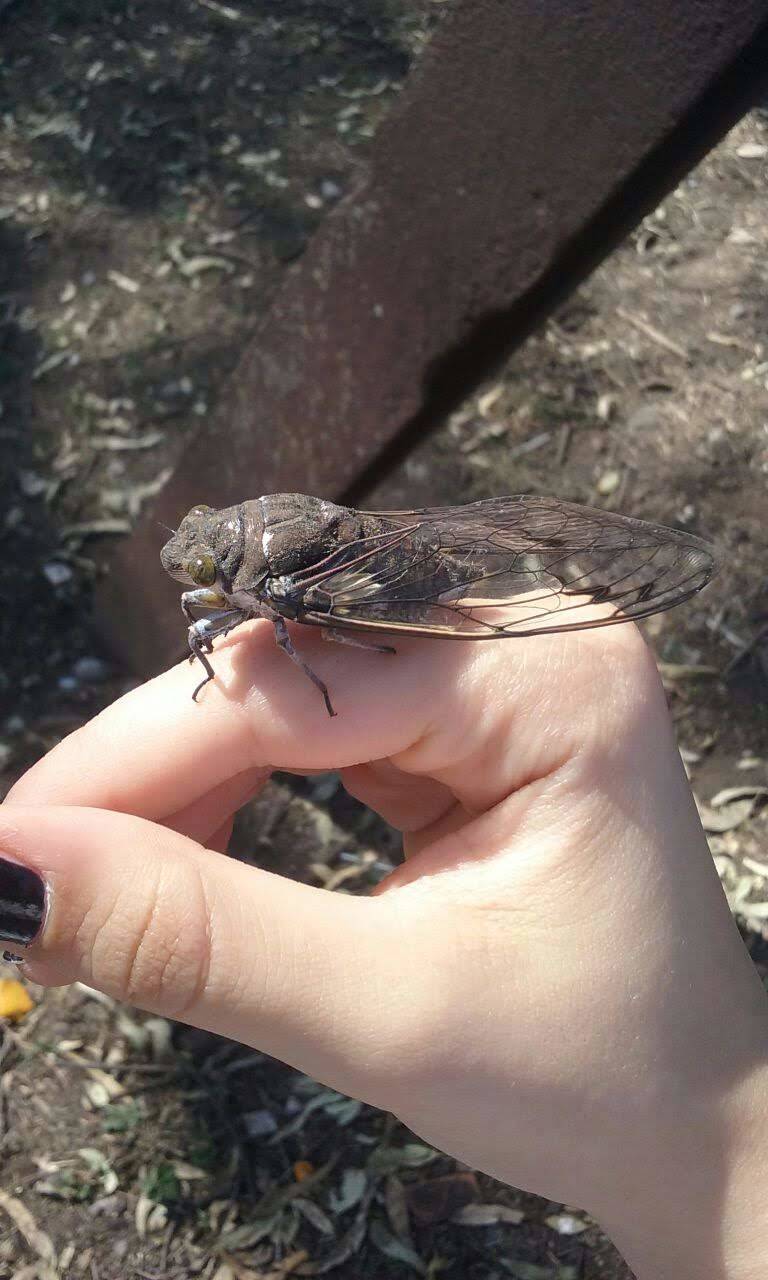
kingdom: Animalia
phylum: Arthropoda
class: Insecta
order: Hemiptera
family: Cicadidae
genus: Quesada
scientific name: Quesada gigas
